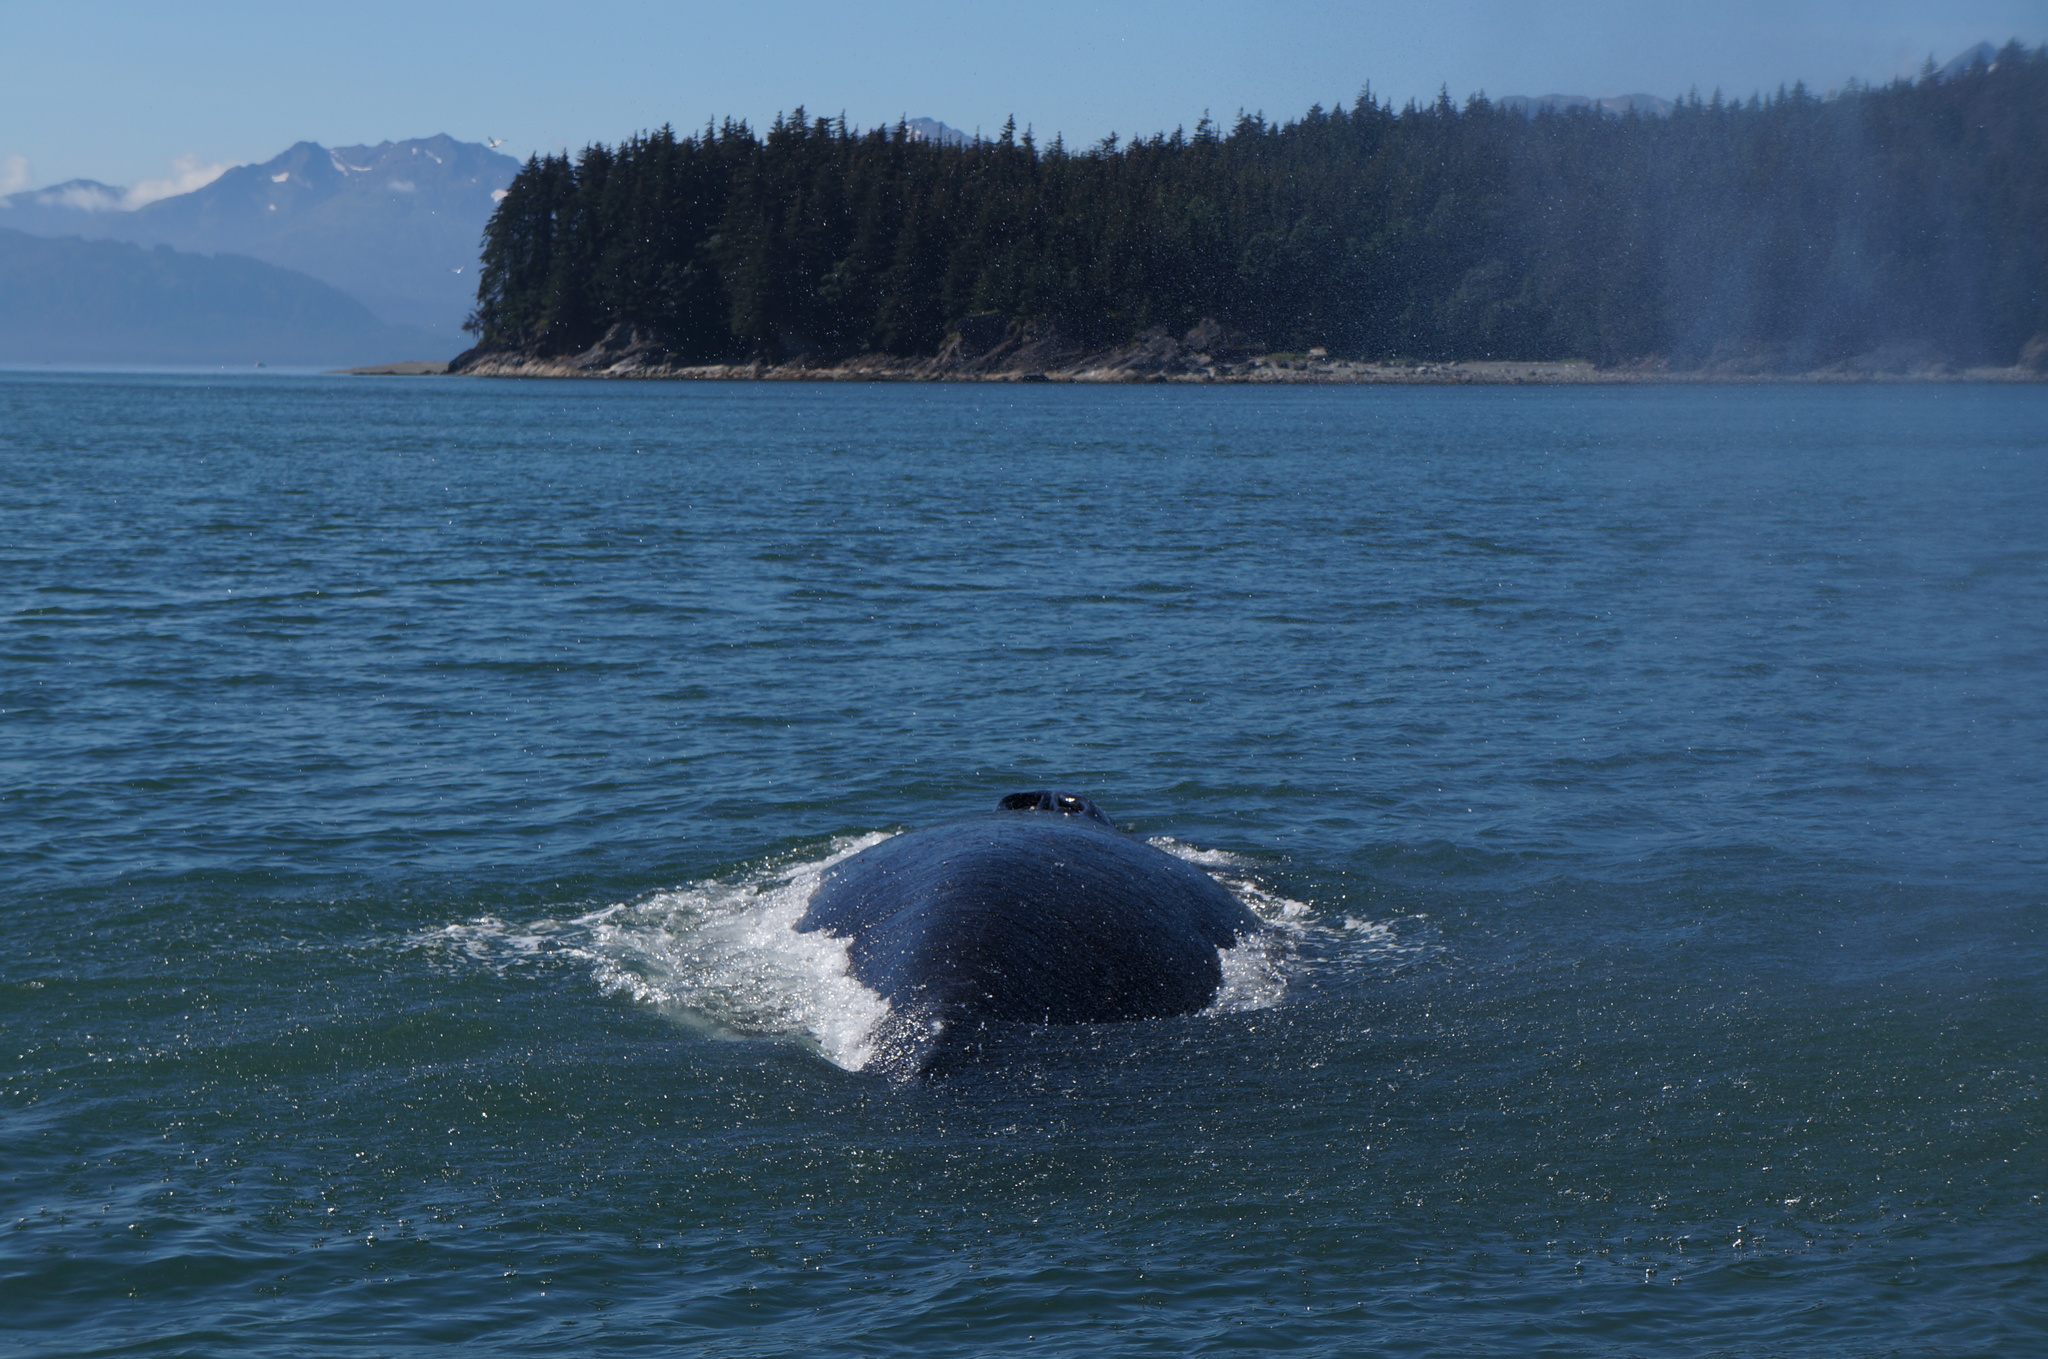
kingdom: Animalia
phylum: Chordata
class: Mammalia
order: Cetacea
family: Balaenopteridae
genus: Megaptera
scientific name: Megaptera novaeangliae
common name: Humpback whale
